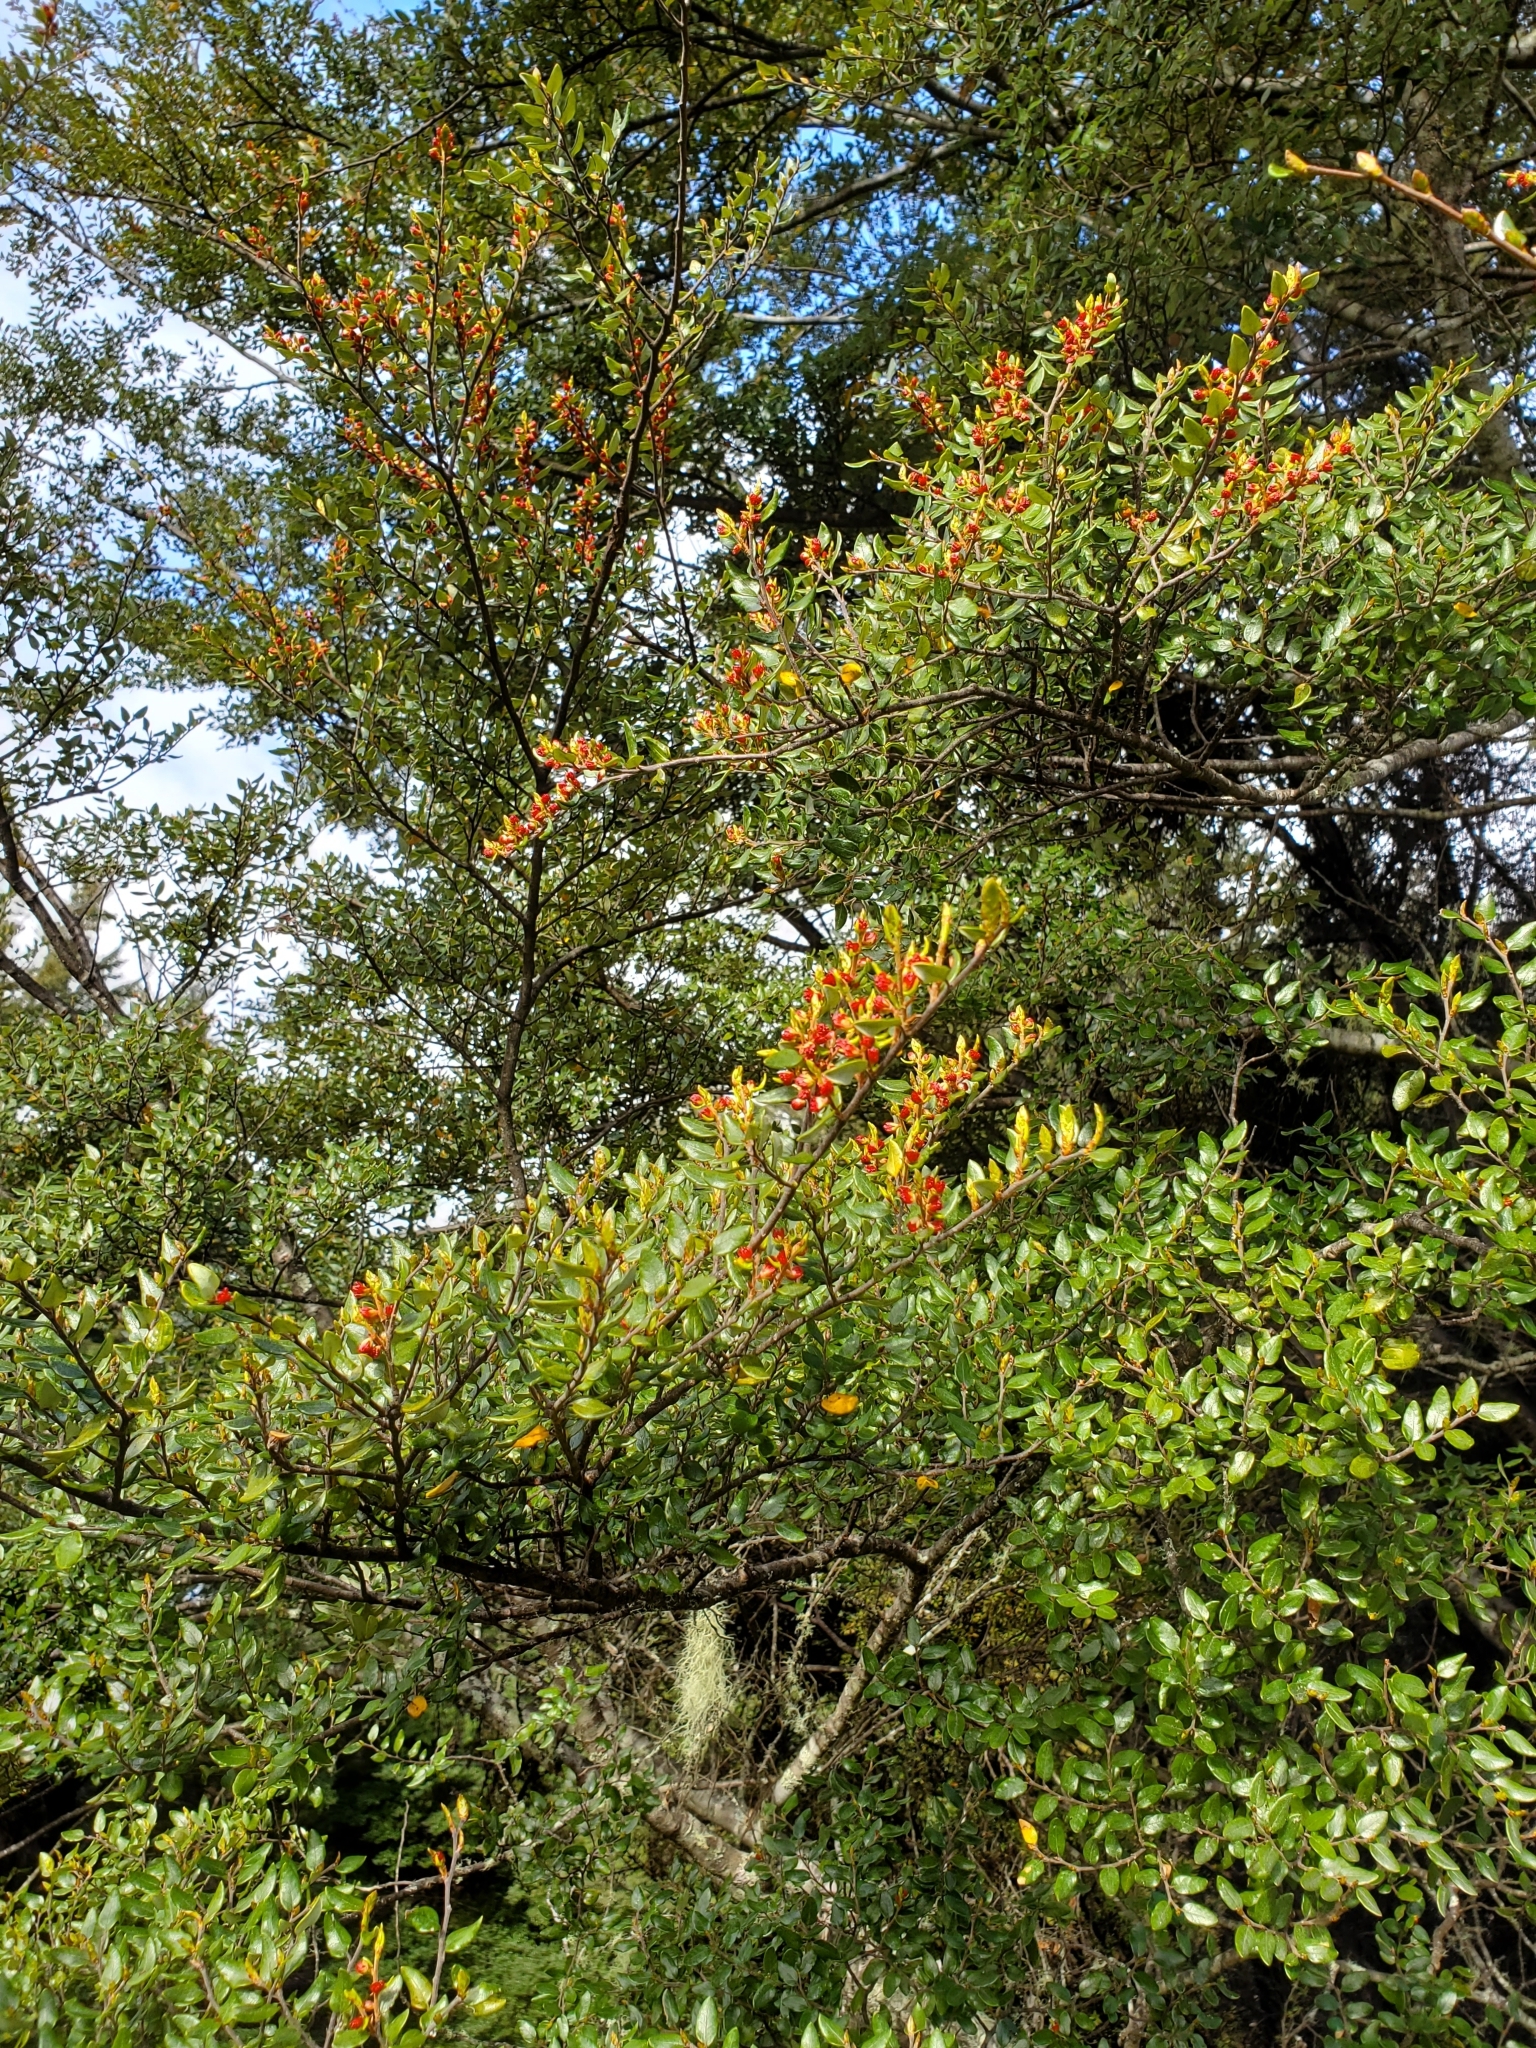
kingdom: Plantae
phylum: Tracheophyta
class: Magnoliopsida
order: Fagales
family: Nothofagaceae
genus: Nothofagus
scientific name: Nothofagus cliffortioides
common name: Mountain beech
